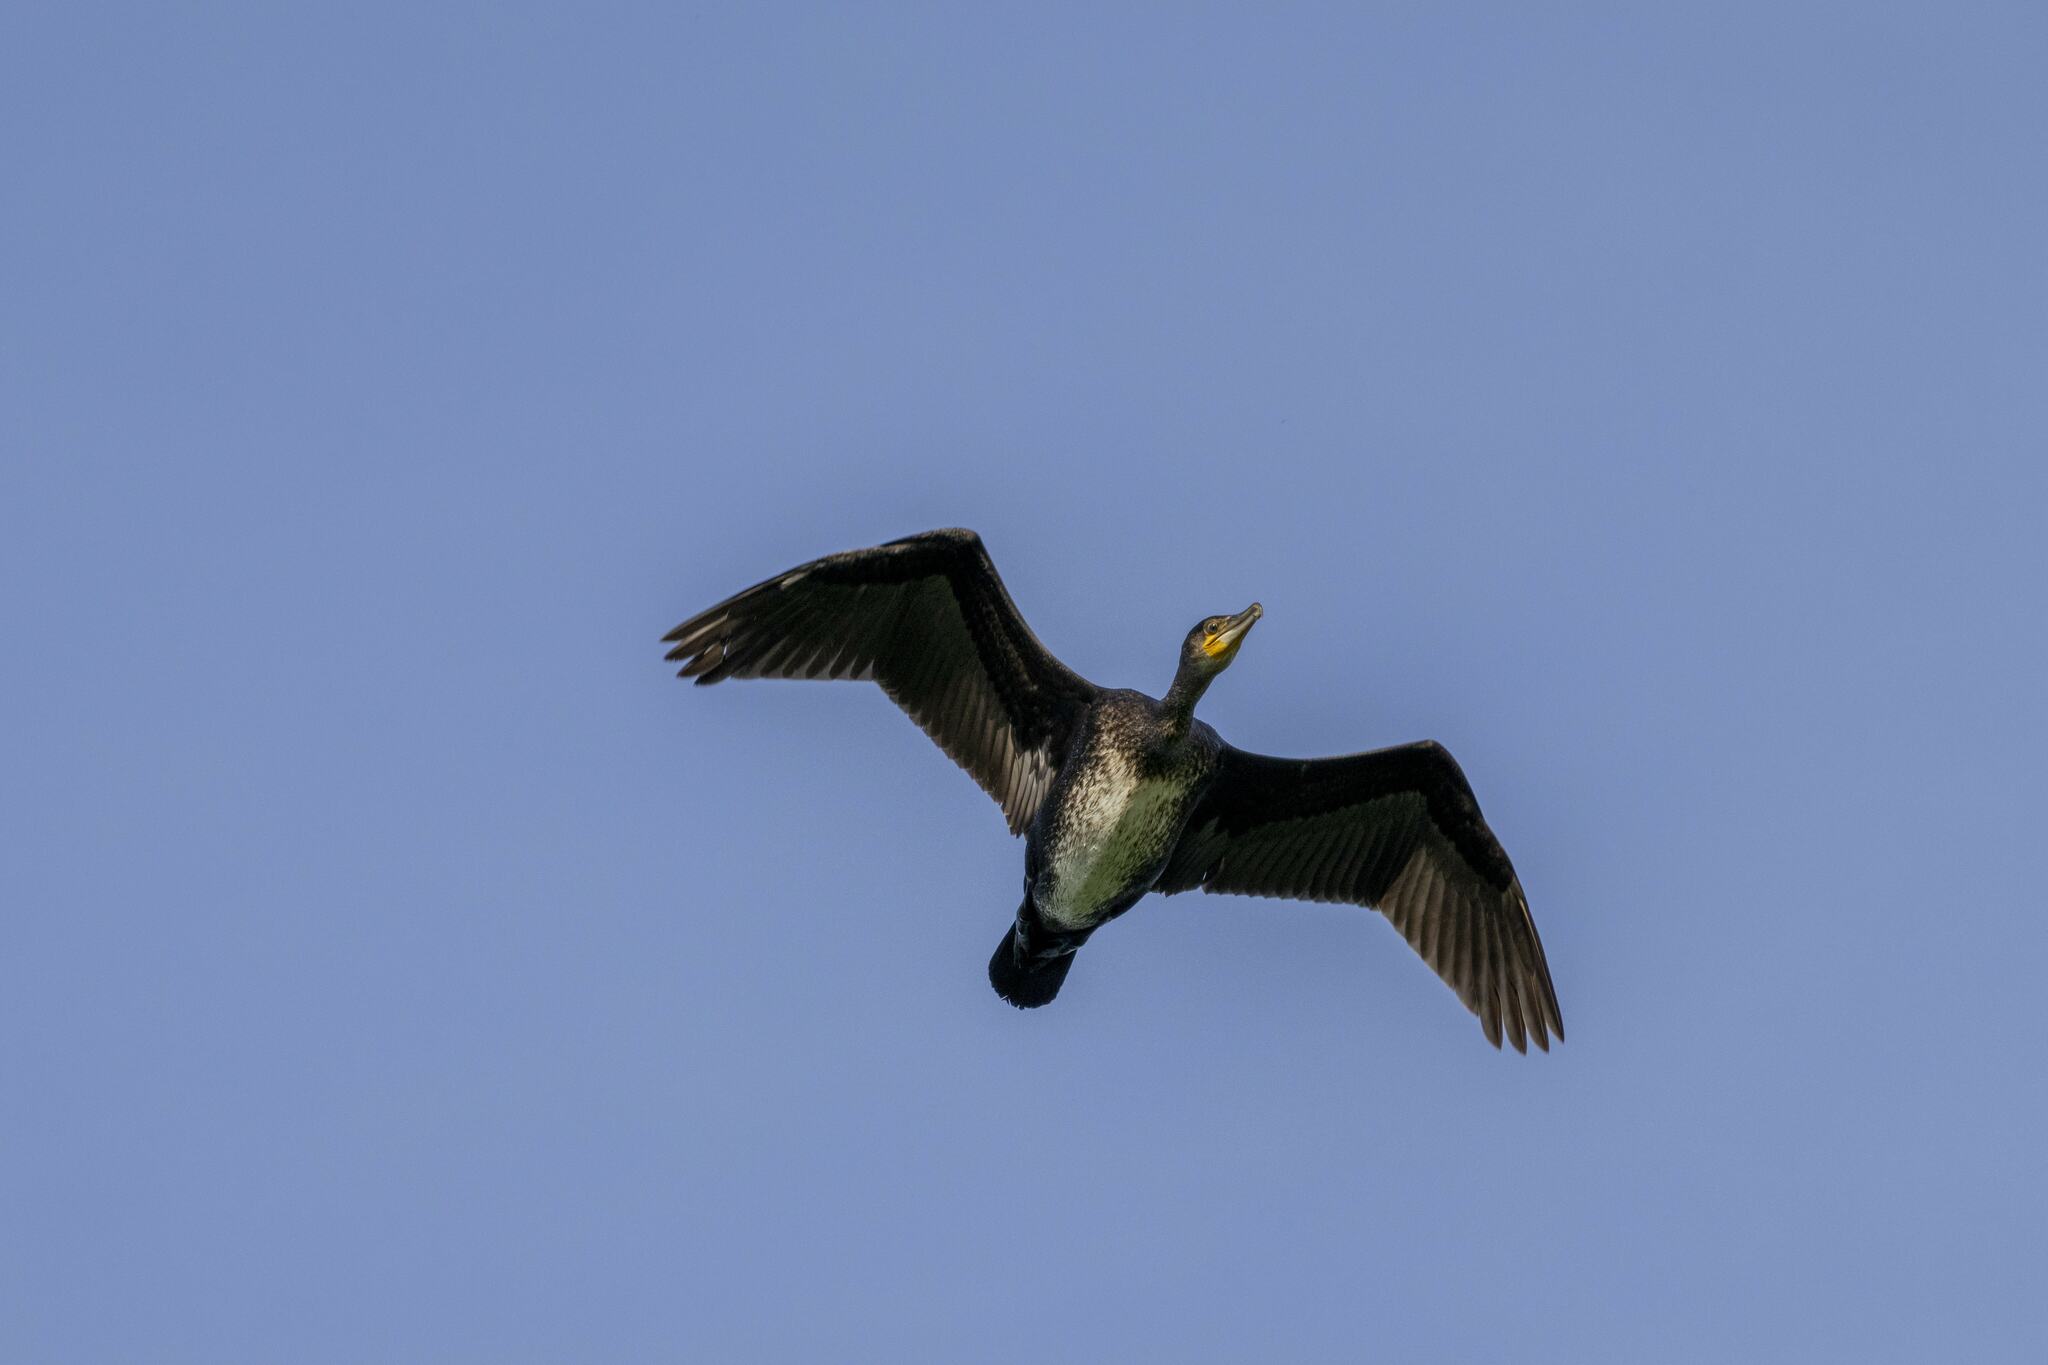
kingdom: Animalia
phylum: Chordata
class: Aves
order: Suliformes
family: Phalacrocoracidae
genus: Phalacrocorax
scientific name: Phalacrocorax carbo
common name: Great cormorant
